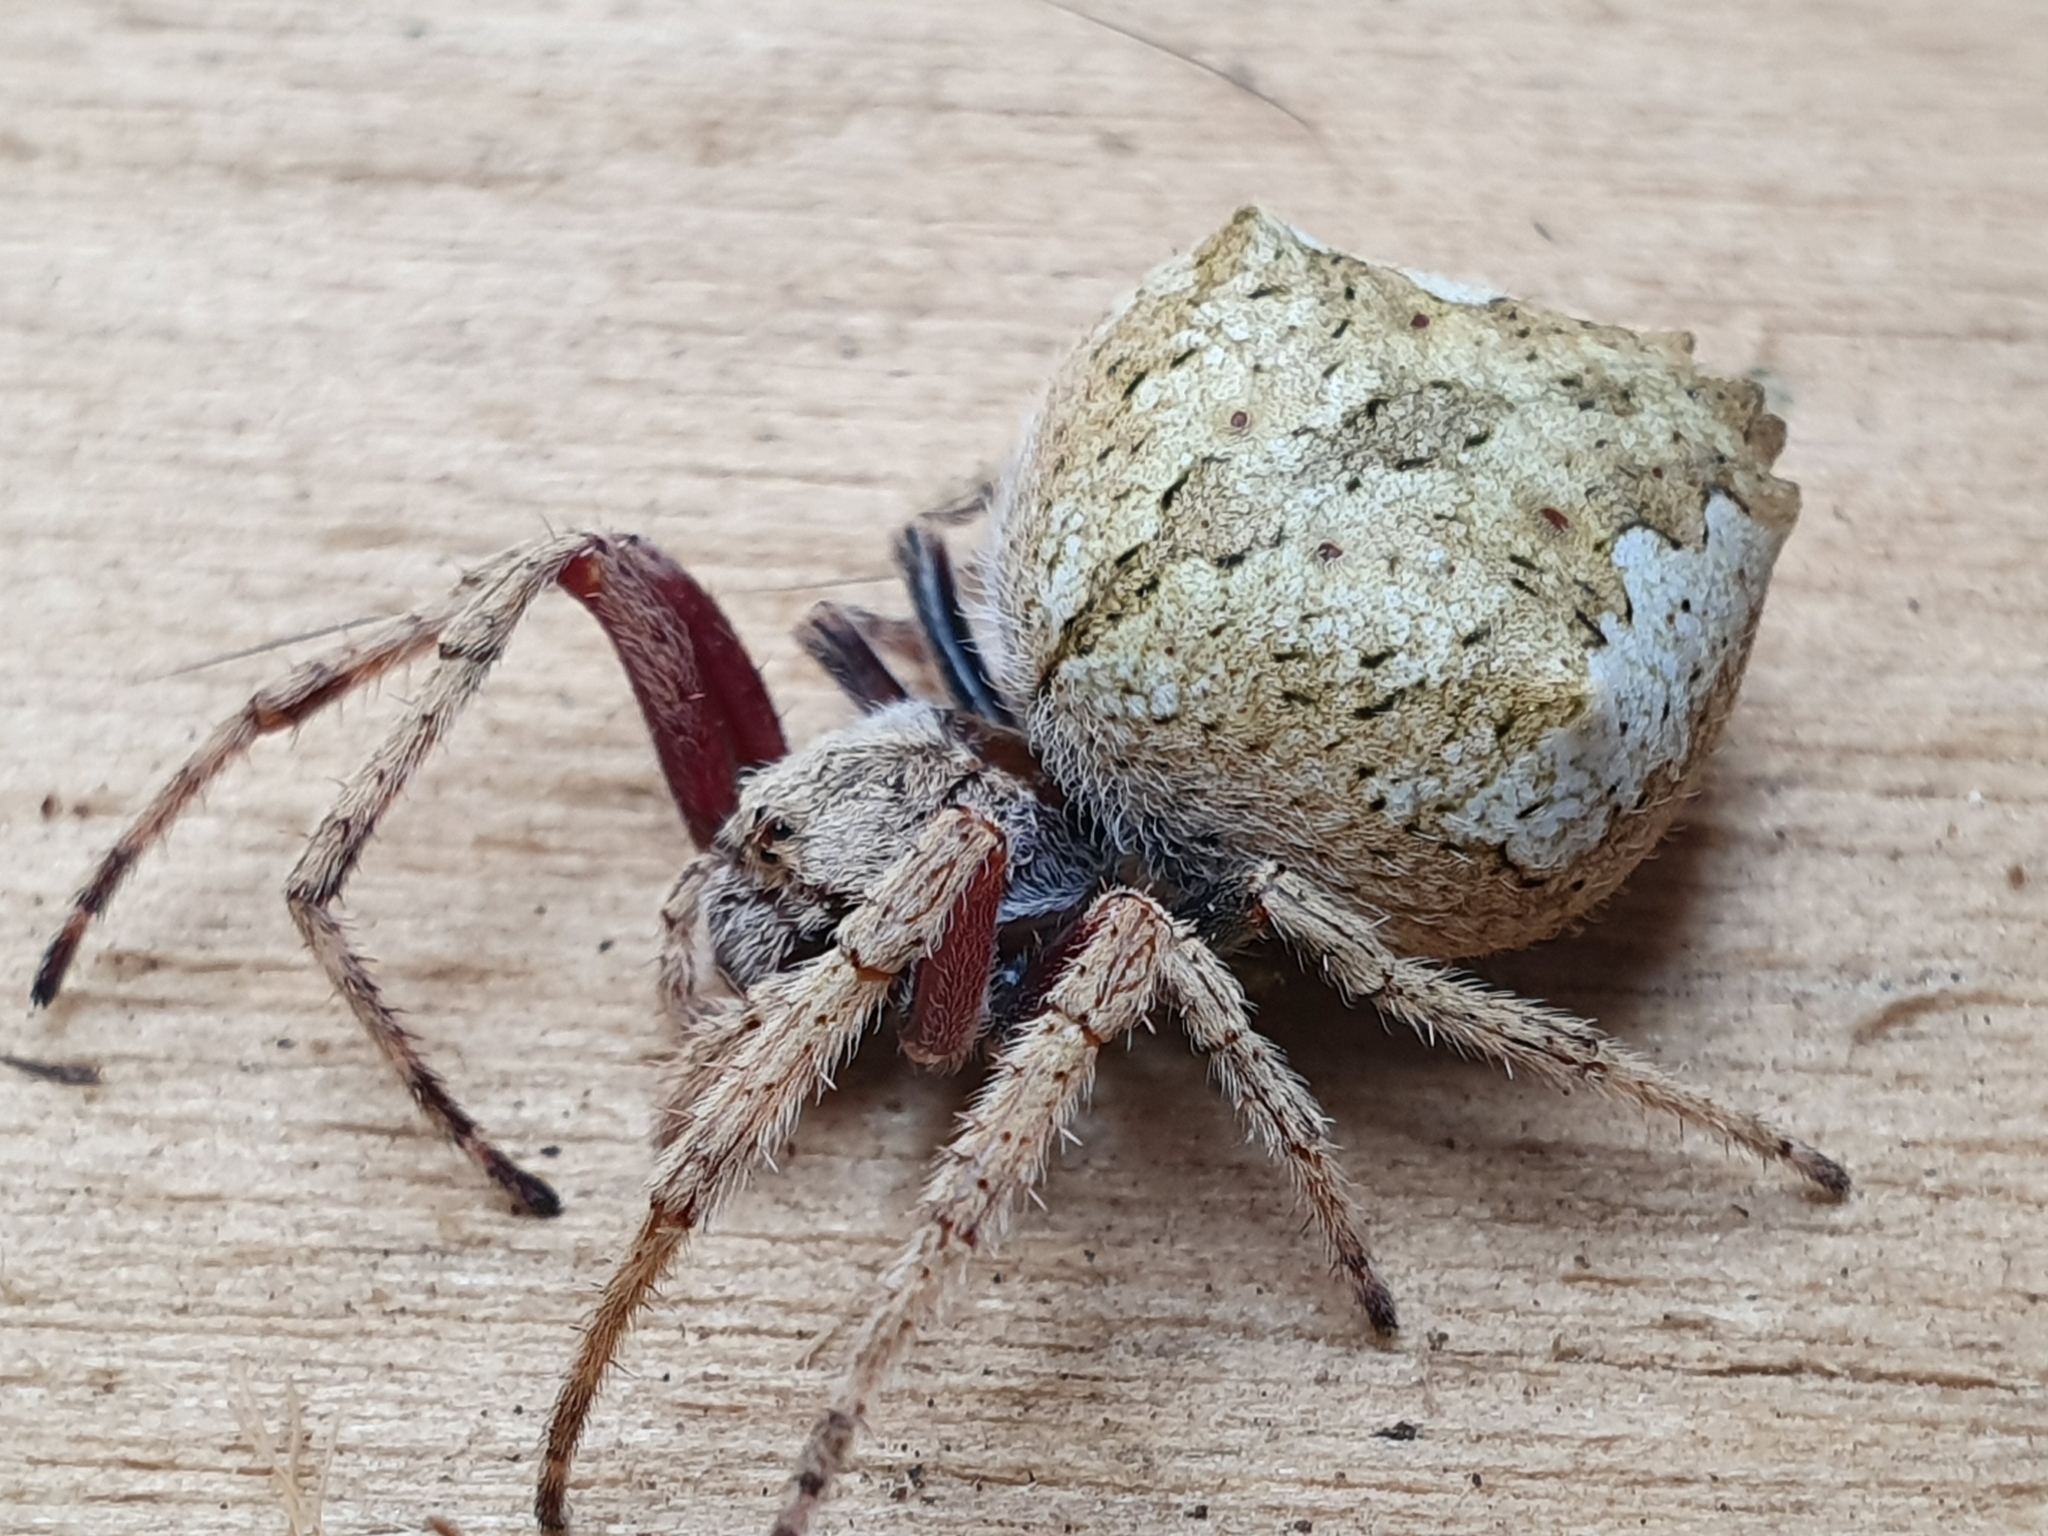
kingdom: Animalia
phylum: Arthropoda
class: Arachnida
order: Araneae
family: Araneidae
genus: Eriophora
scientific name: Eriophora pustulosa
